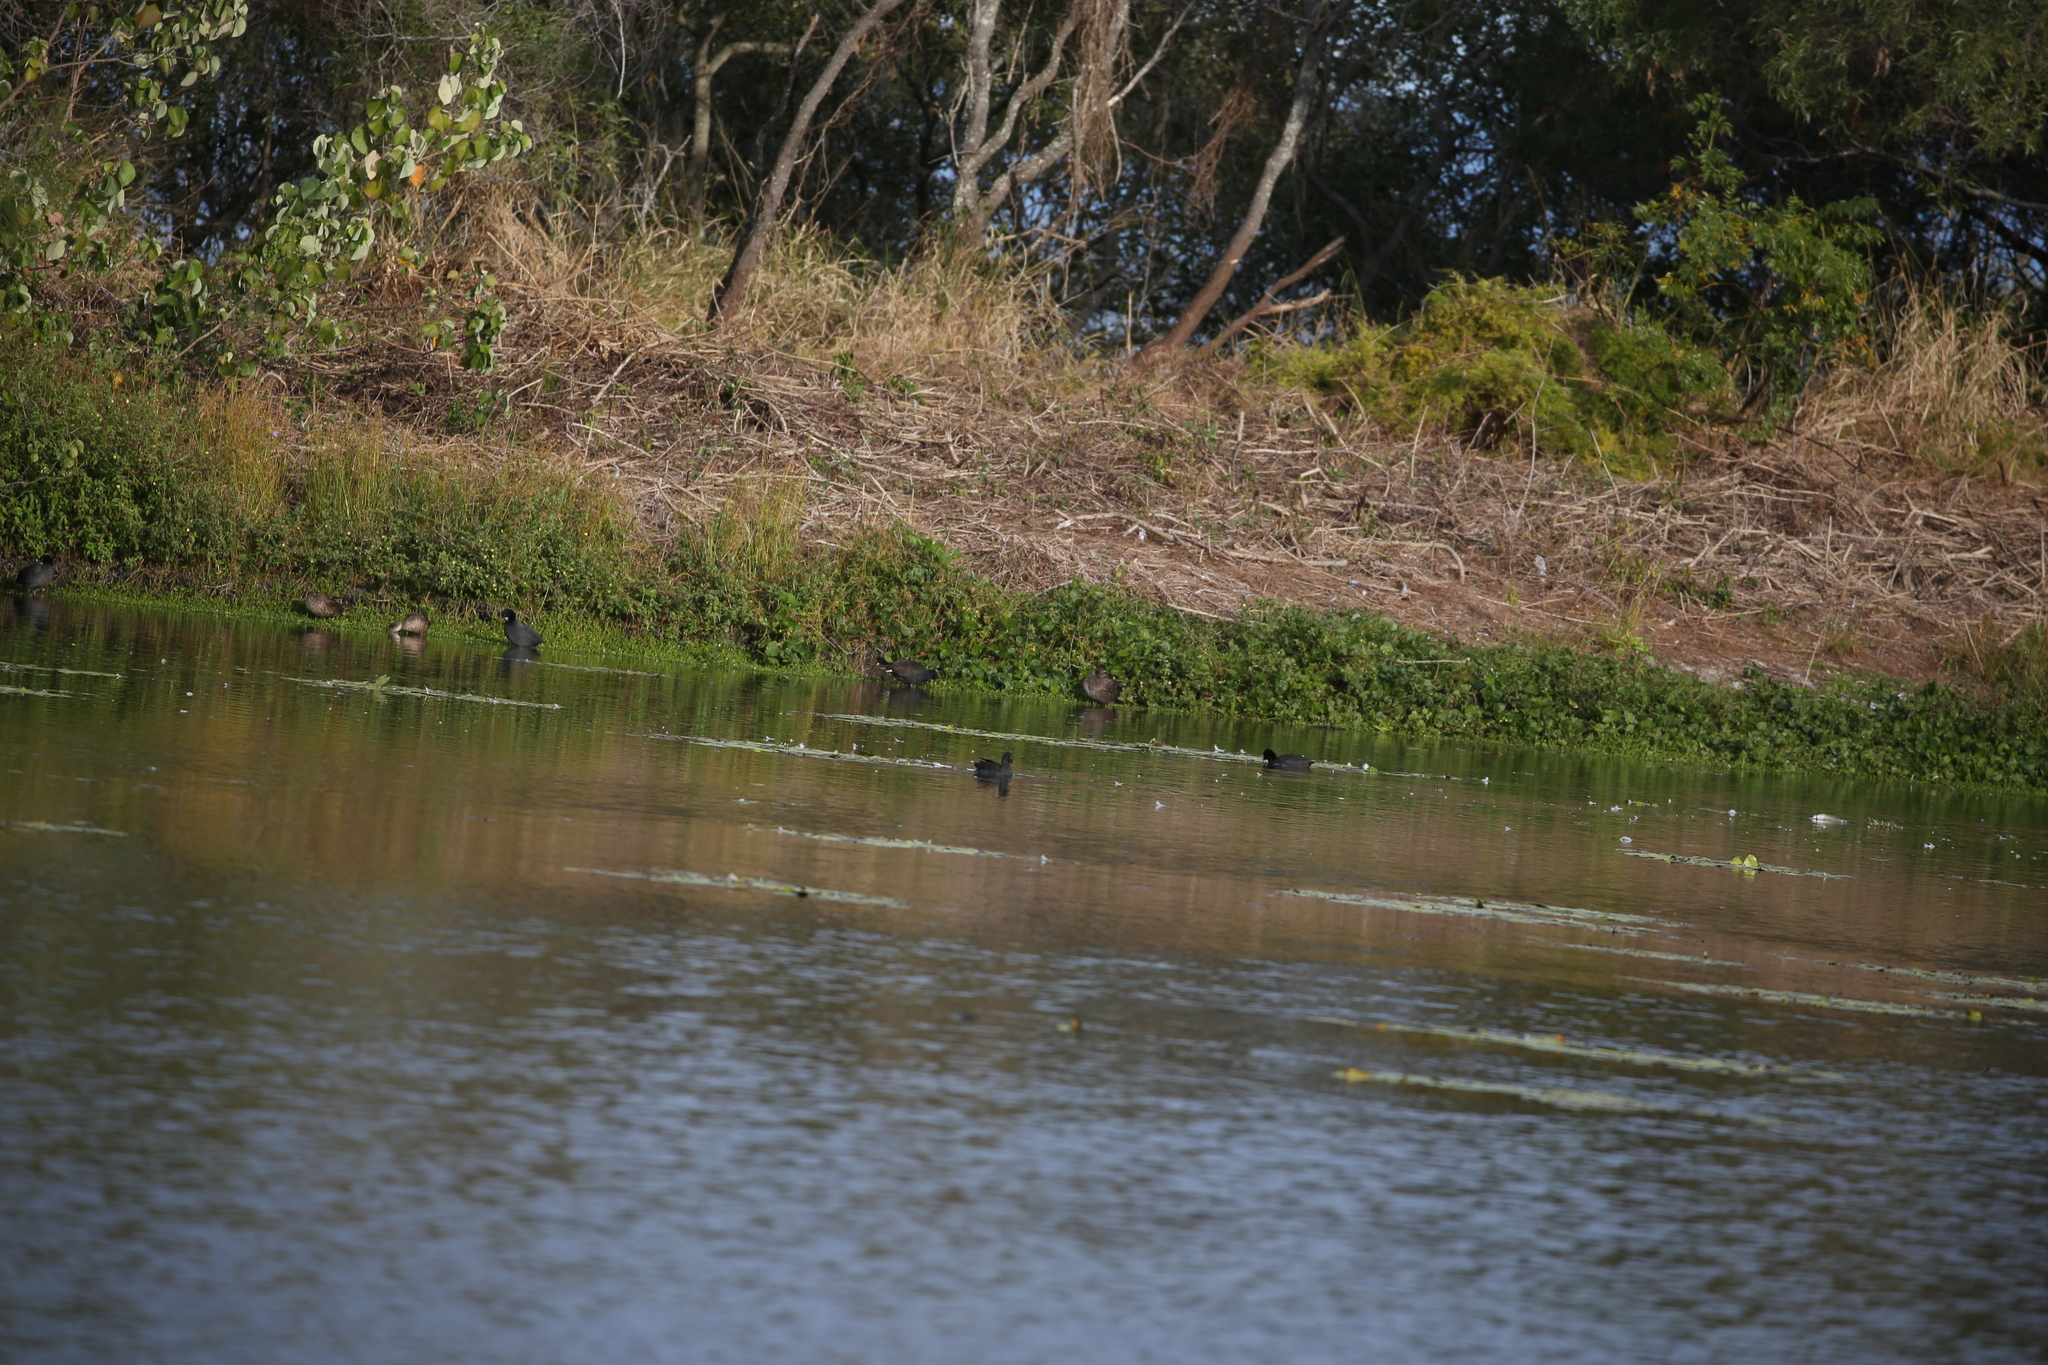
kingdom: Animalia
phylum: Chordata
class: Aves
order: Gruiformes
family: Rallidae
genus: Gallinula
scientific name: Gallinula tenebrosa
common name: Dusky moorhen
